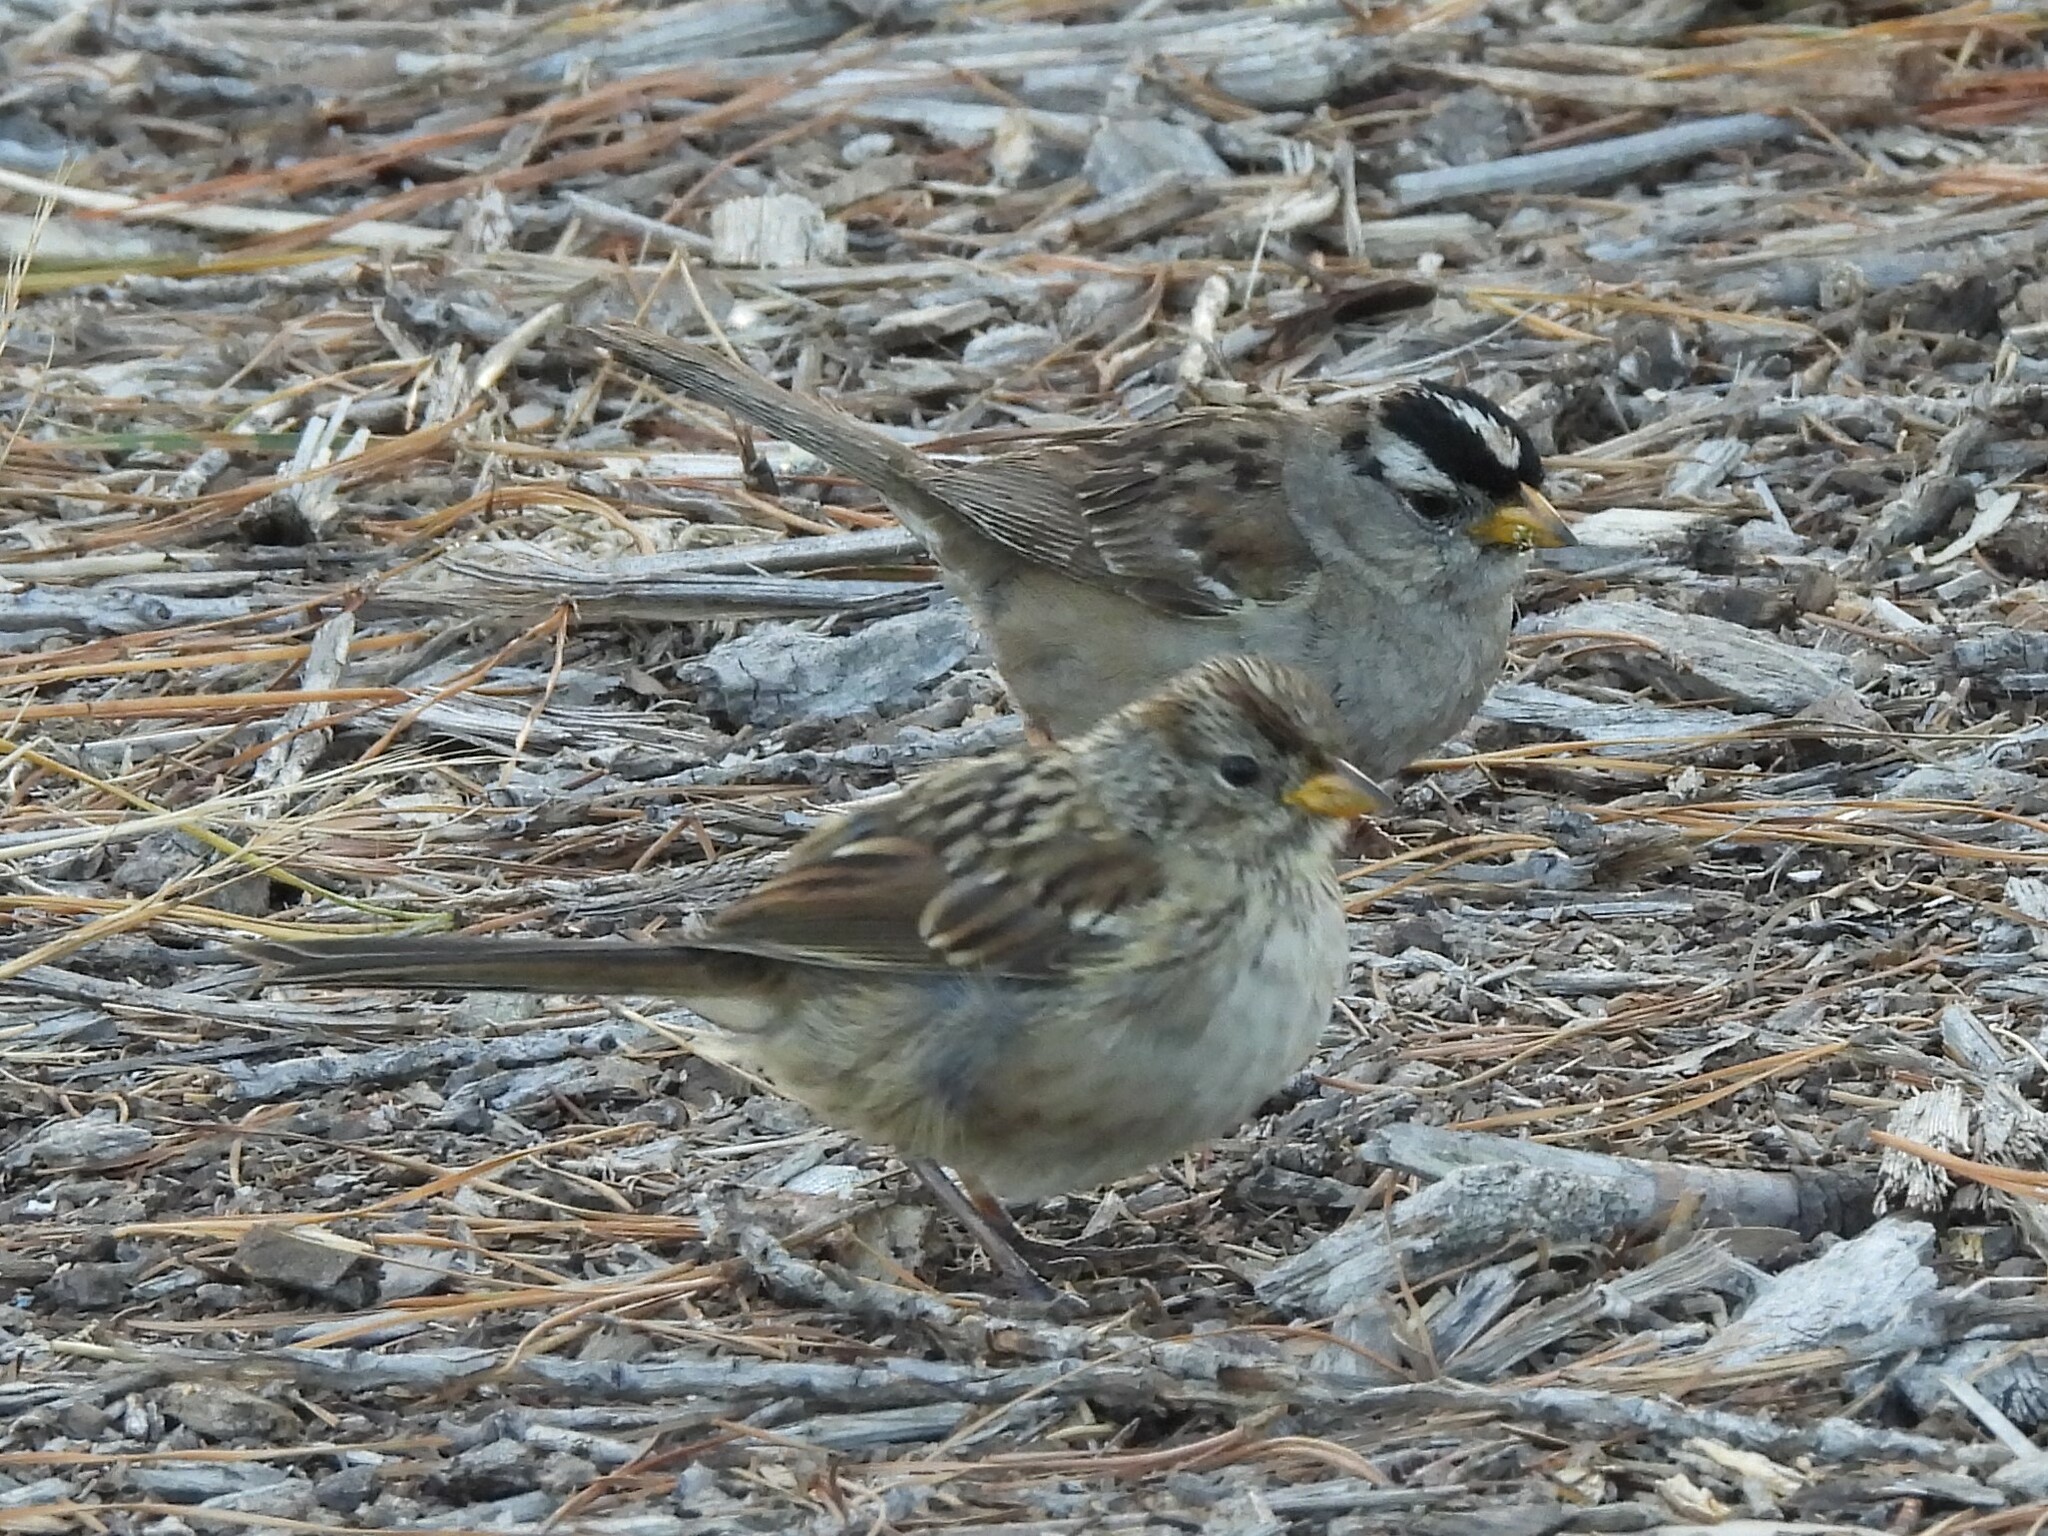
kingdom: Animalia
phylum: Chordata
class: Aves
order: Passeriformes
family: Passerellidae
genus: Zonotrichia
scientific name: Zonotrichia leucophrys
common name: White-crowned sparrow
